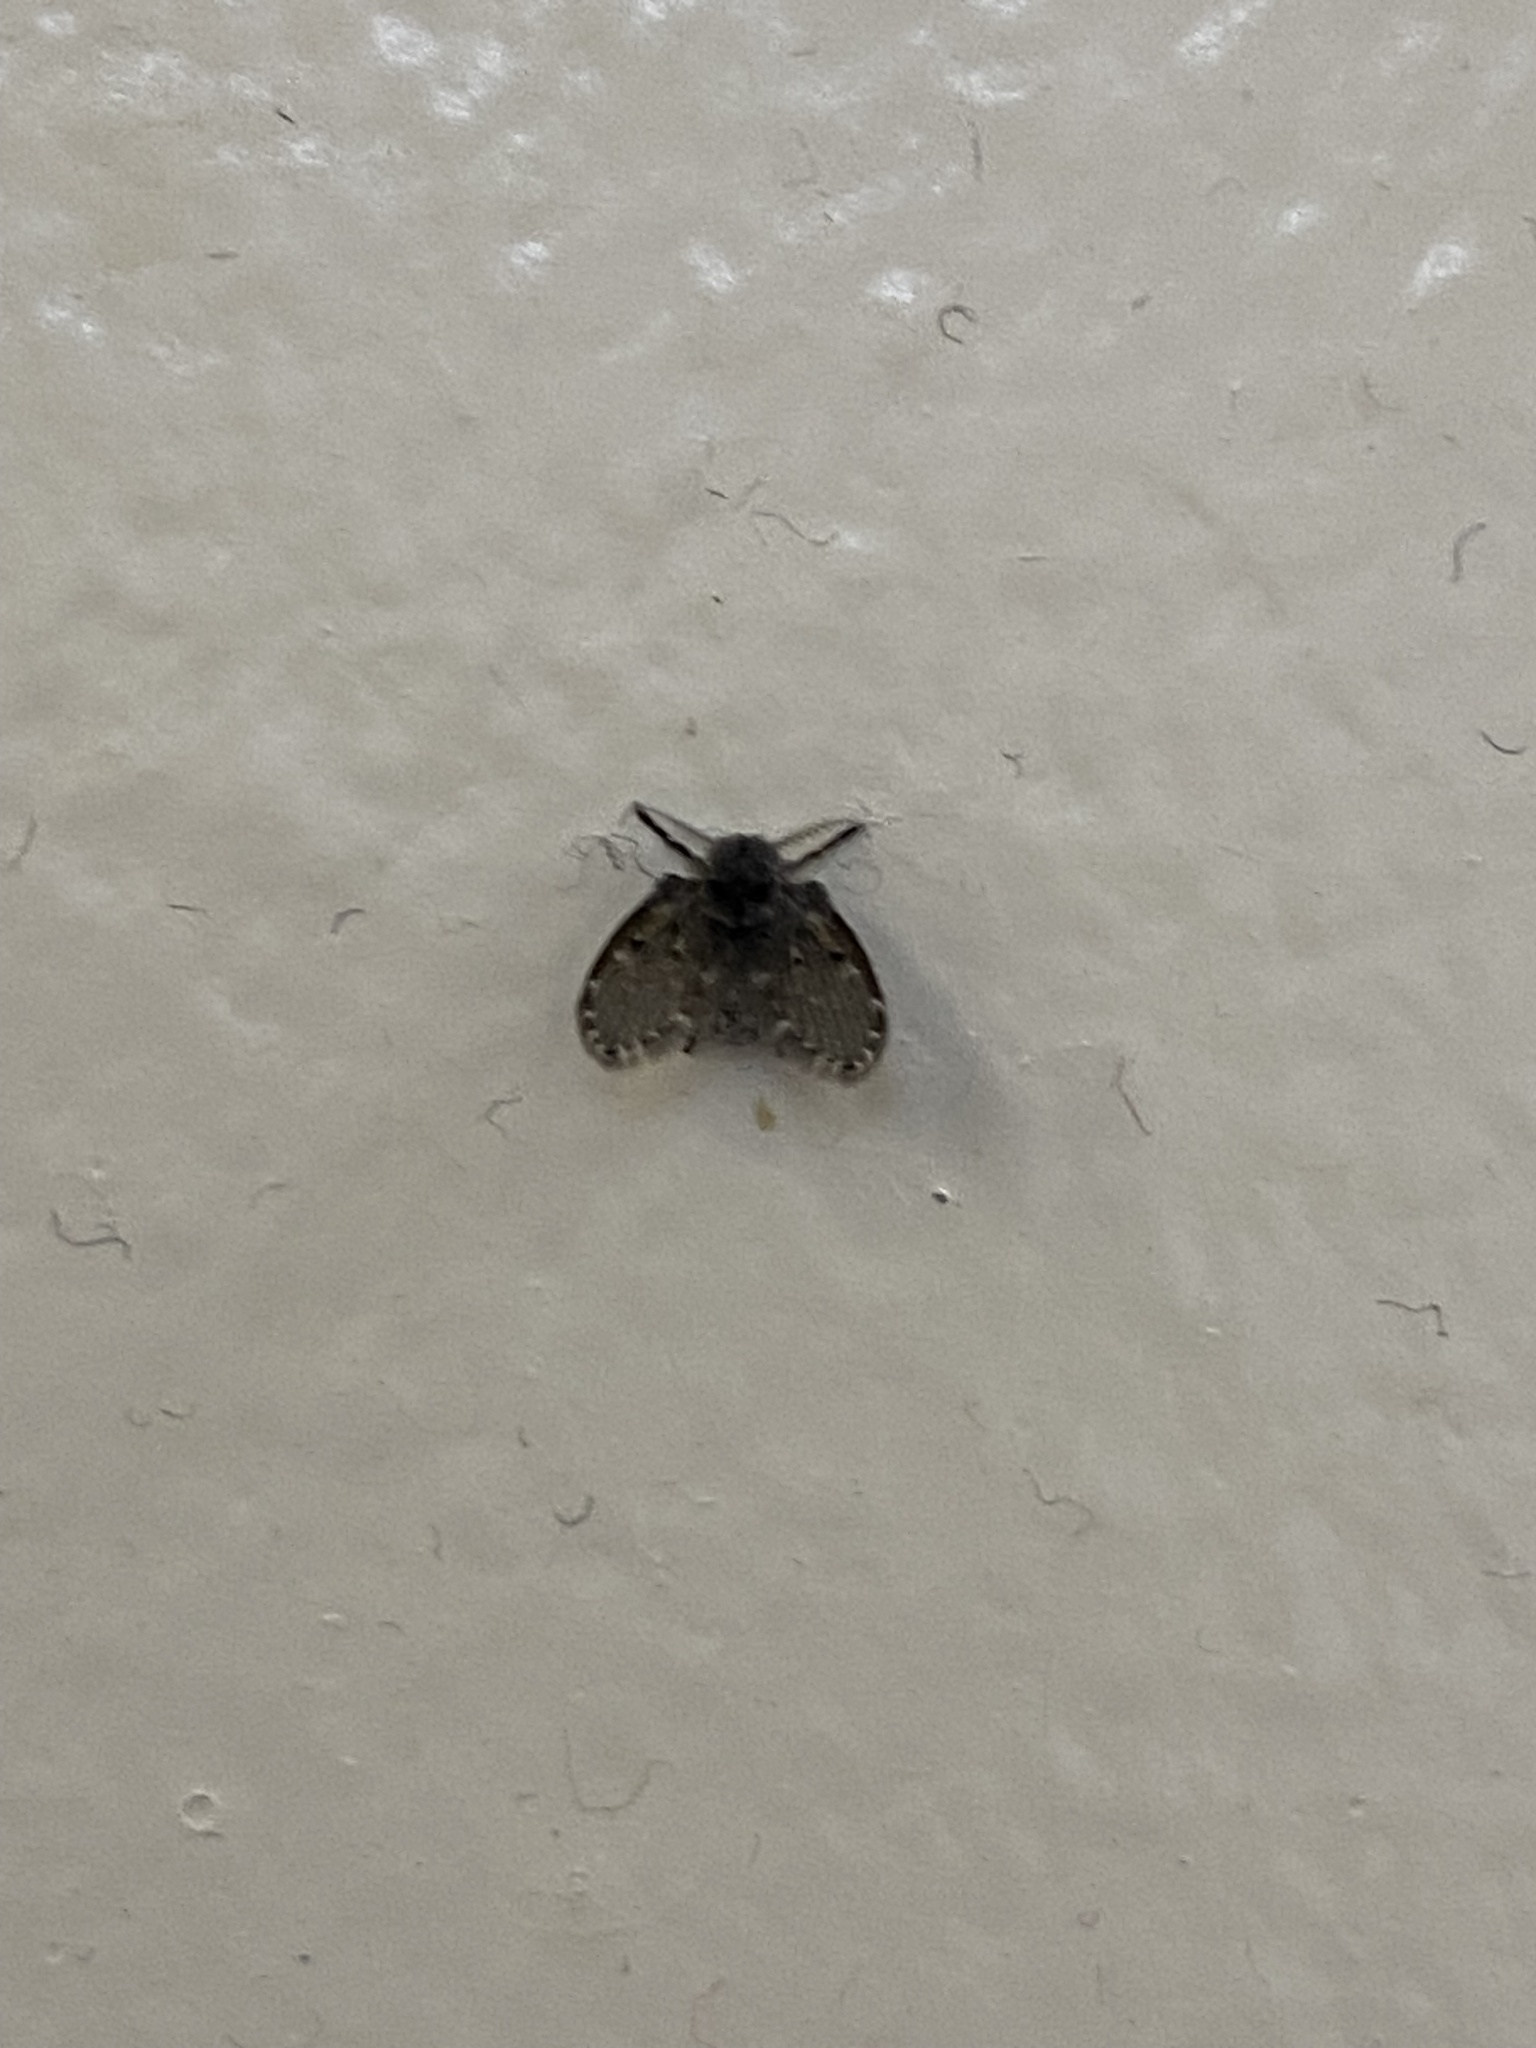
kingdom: Animalia
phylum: Arthropoda
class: Insecta
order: Diptera
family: Psychodidae
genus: Clogmia
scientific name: Clogmia albipunctatus
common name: White-spotted moth fly
